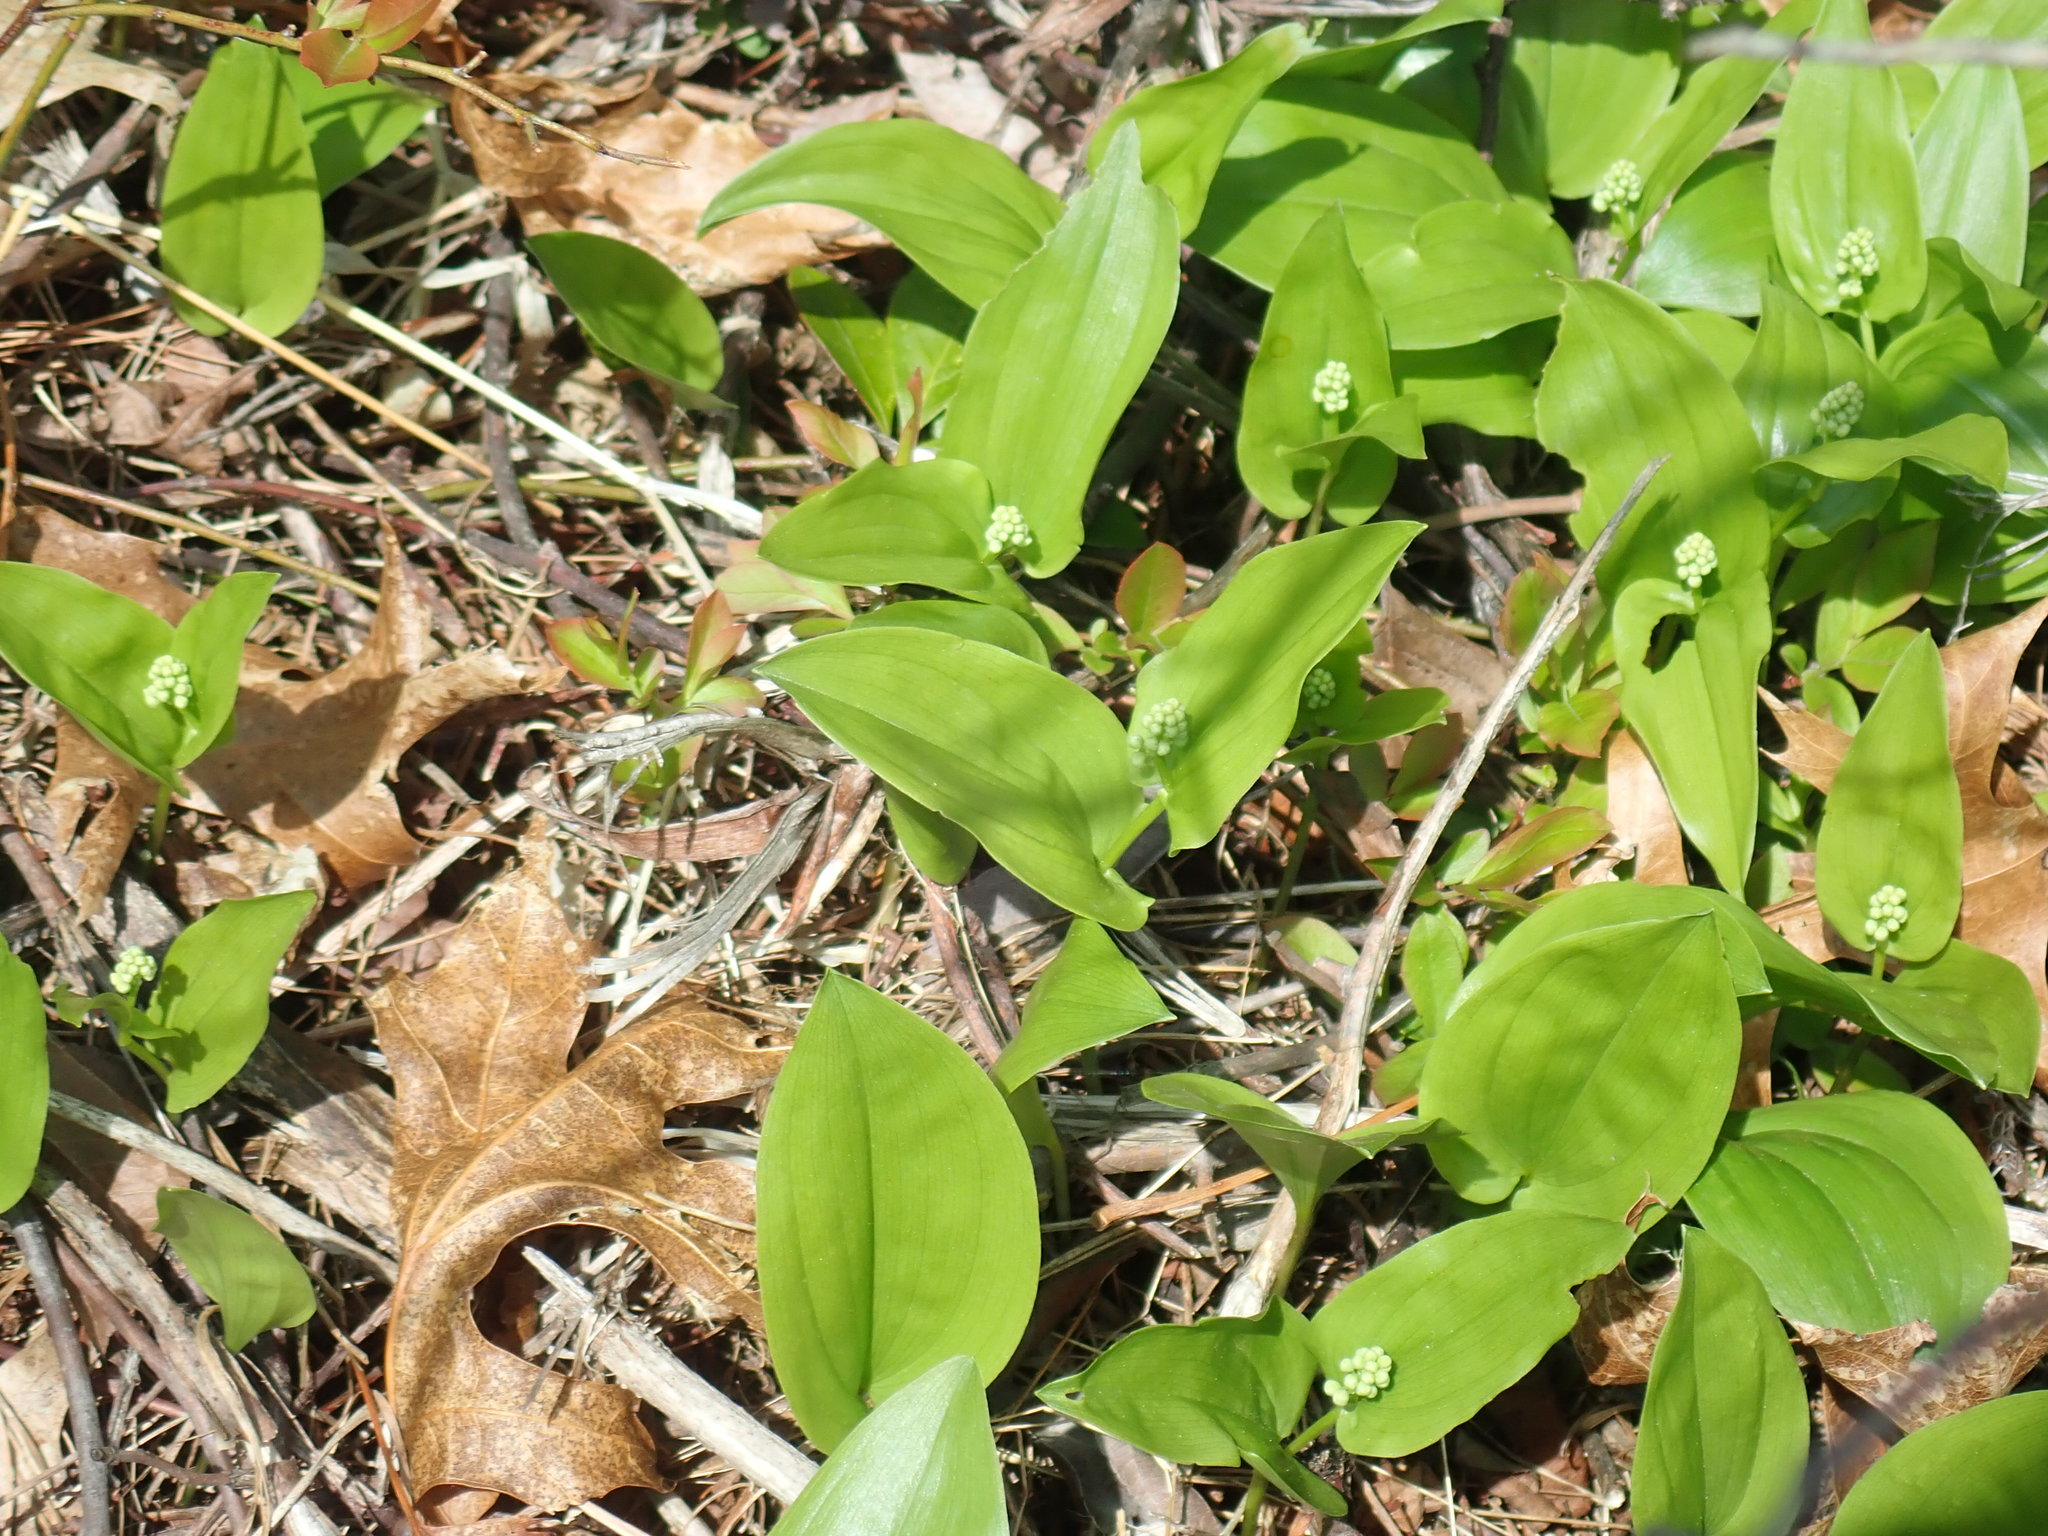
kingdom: Plantae
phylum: Tracheophyta
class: Liliopsida
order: Asparagales
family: Asparagaceae
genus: Maianthemum
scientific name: Maianthemum canadense
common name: False lily-of-the-valley
